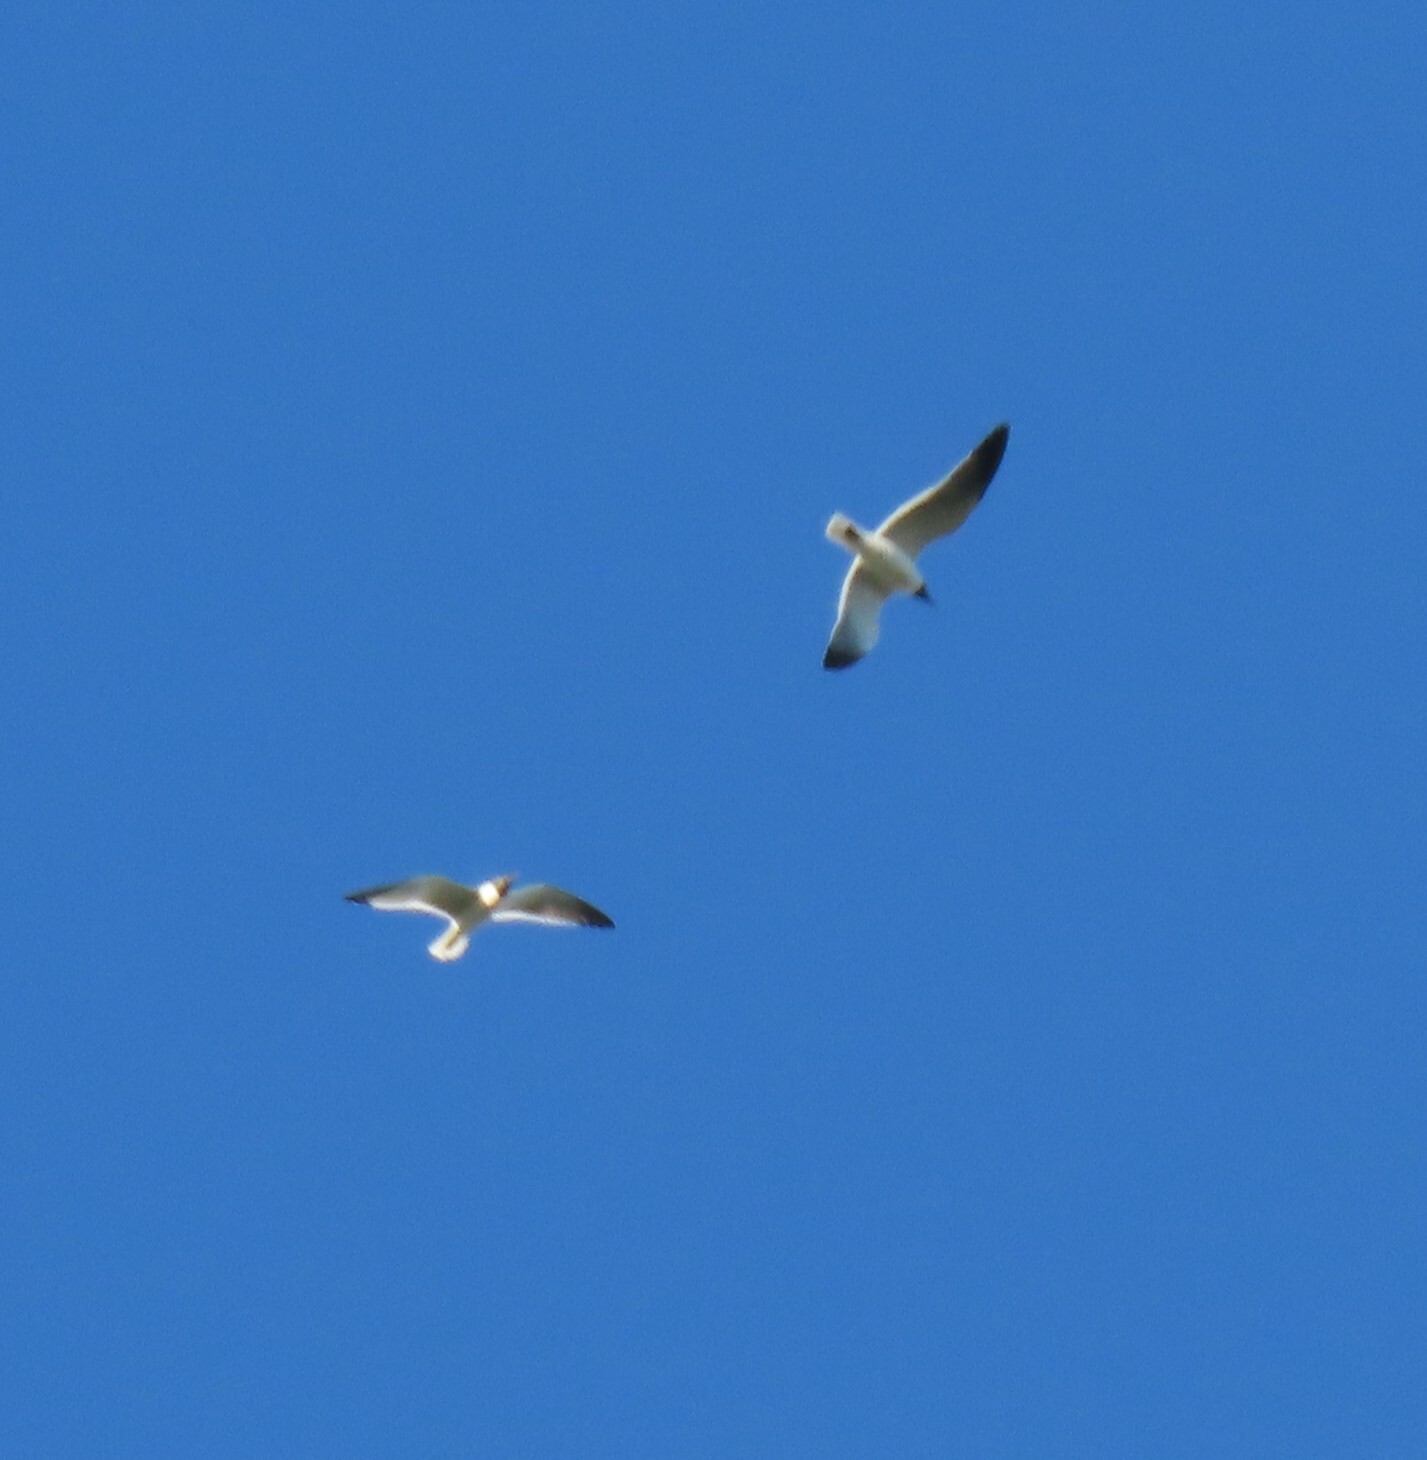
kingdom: Animalia
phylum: Chordata
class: Aves
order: Charadriiformes
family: Laridae
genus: Leucophaeus
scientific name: Leucophaeus atricilla
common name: Laughing gull
